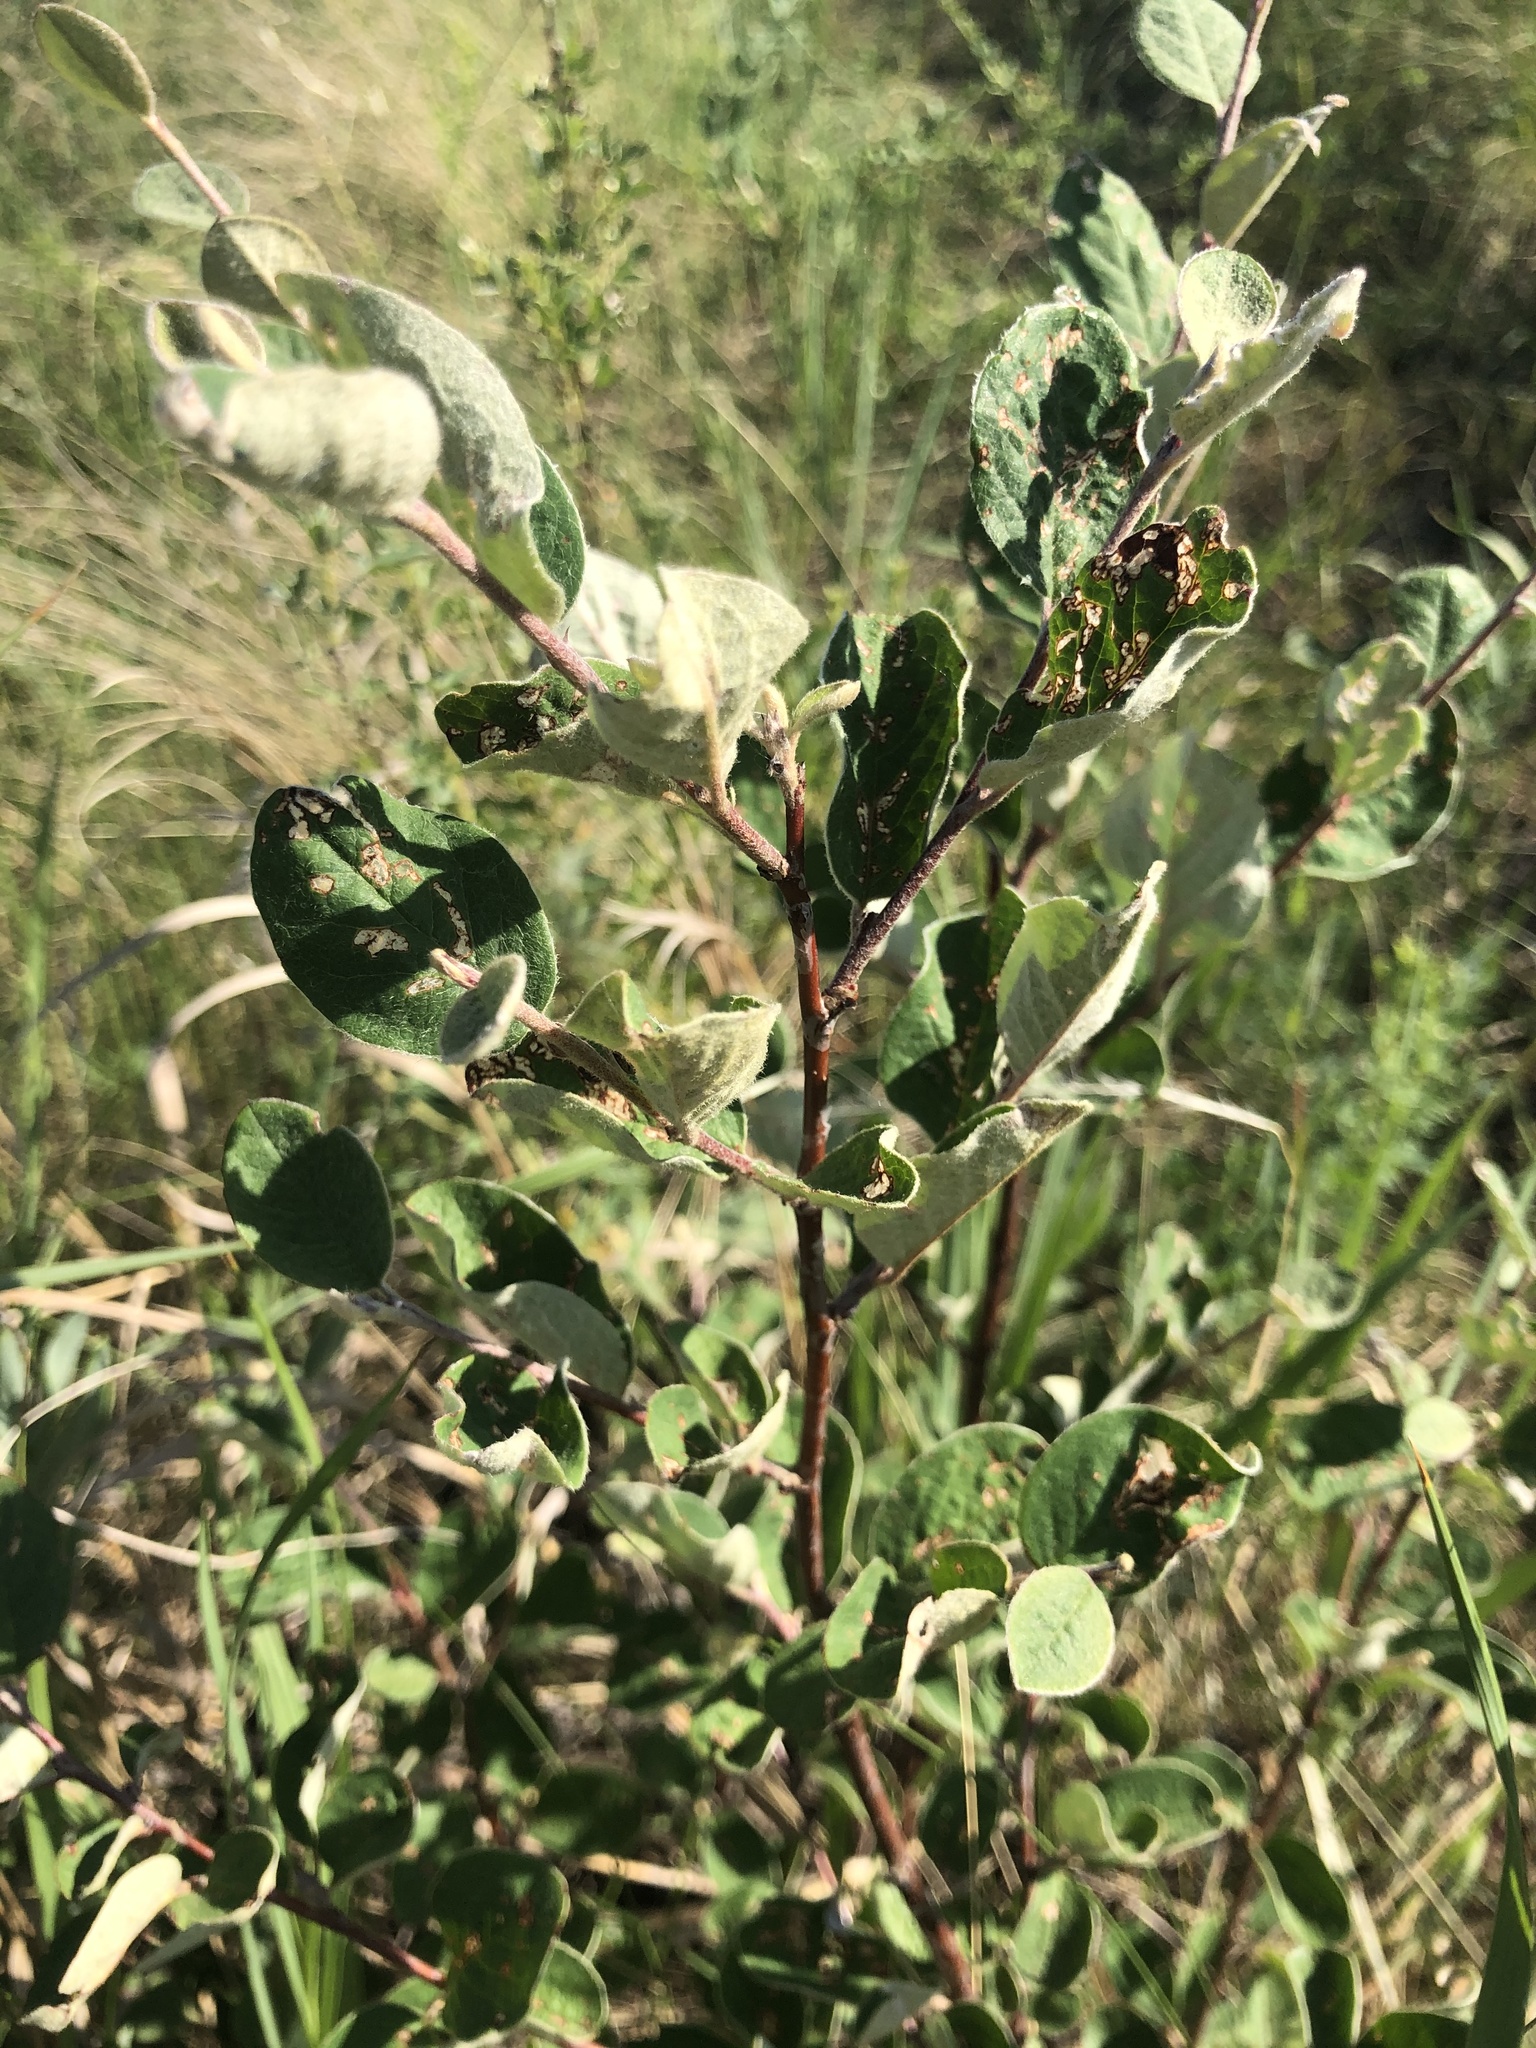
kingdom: Plantae
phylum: Tracheophyta
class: Magnoliopsida
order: Rosales
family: Rosaceae
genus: Cotoneaster
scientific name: Cotoneaster melanocarpus
